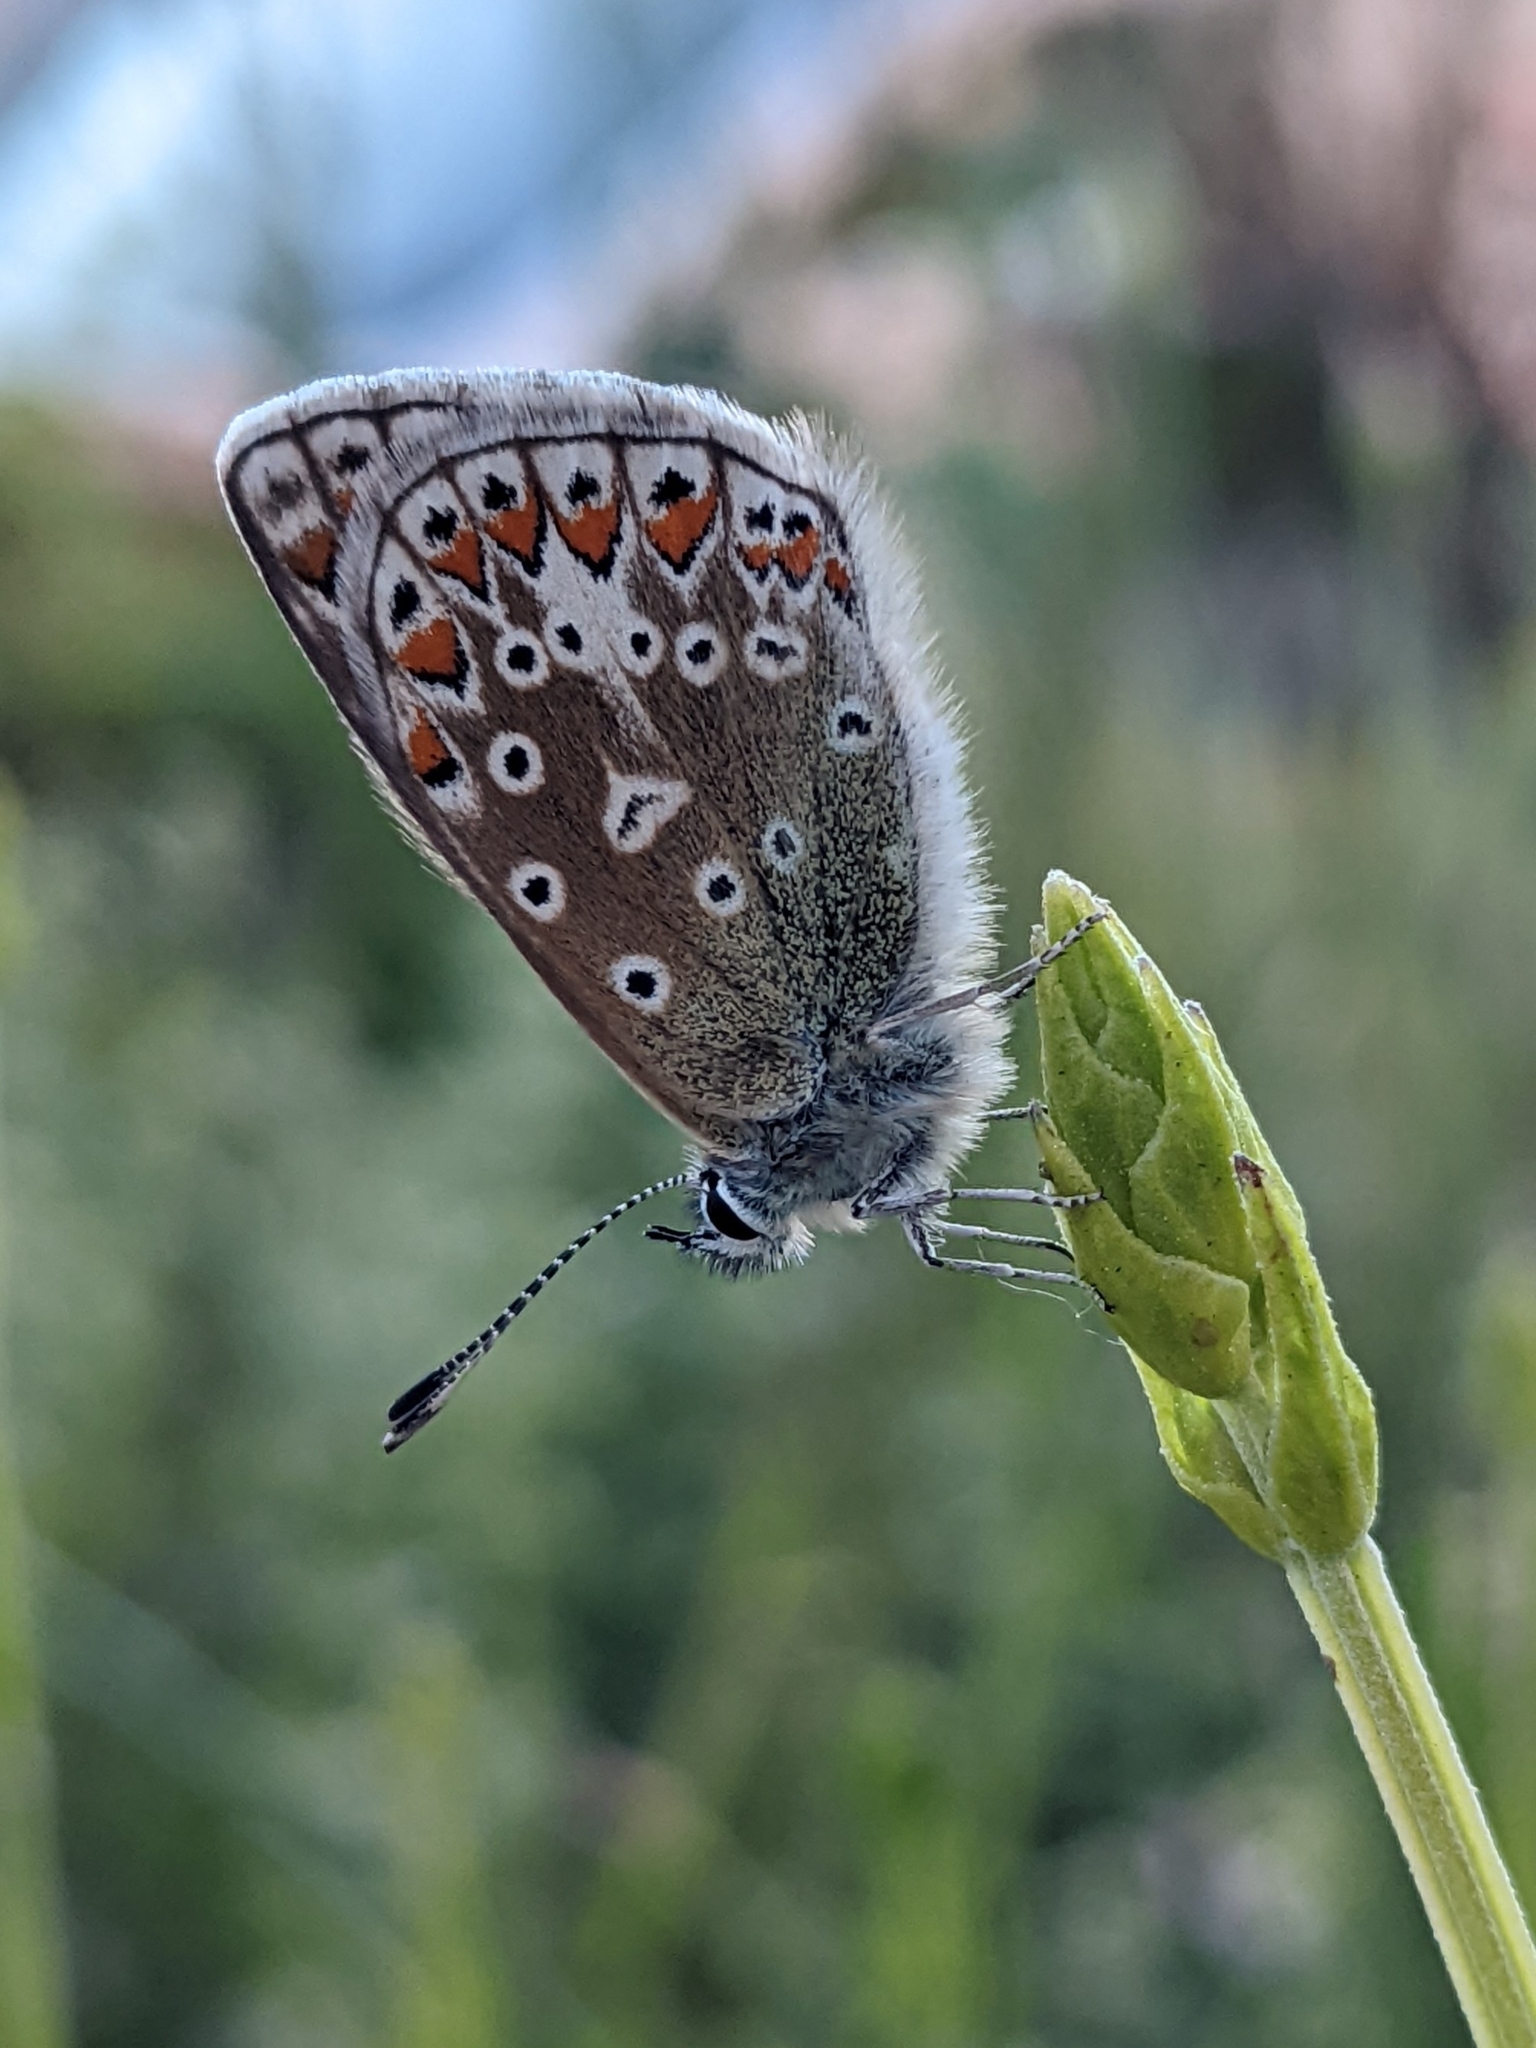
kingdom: Animalia
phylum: Arthropoda
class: Insecta
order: Lepidoptera
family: Lycaenidae
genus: Polyommatus
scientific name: Polyommatus icarus
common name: Common blue
